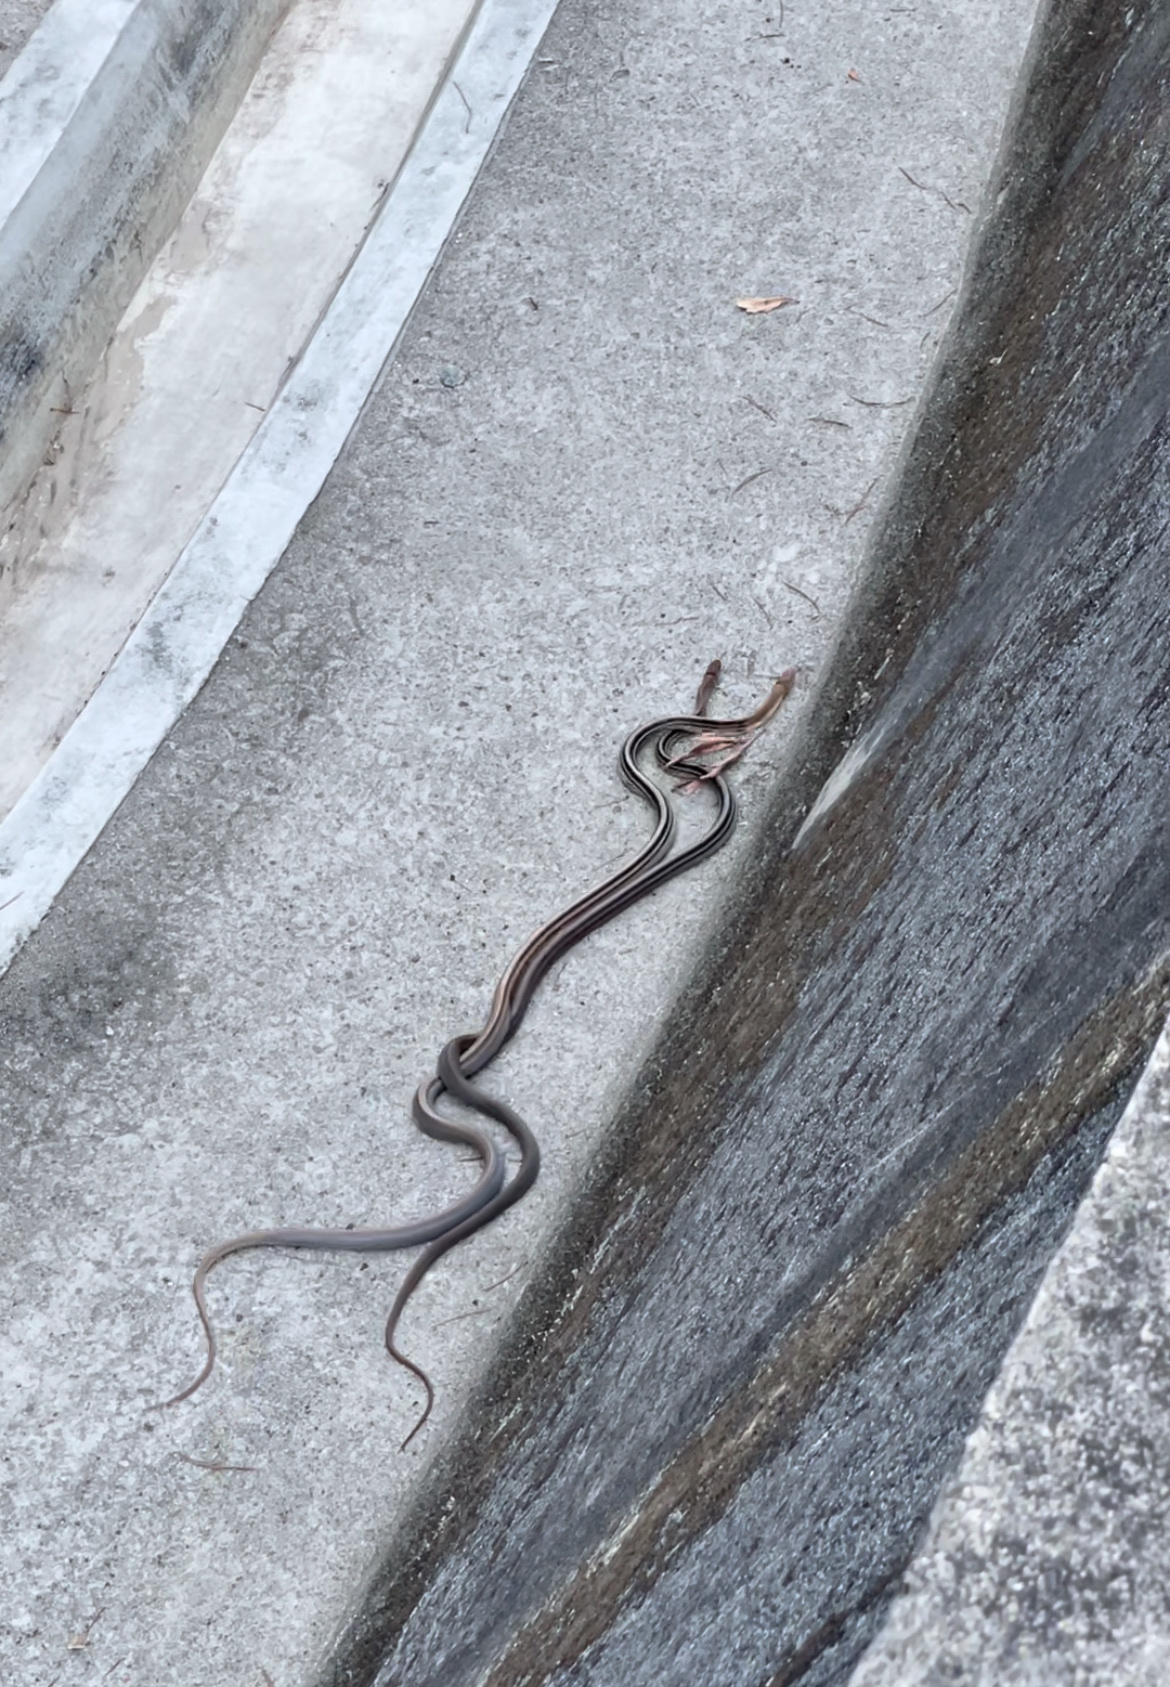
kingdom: Animalia
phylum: Chordata
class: Squamata
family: Colubridae
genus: Coelognathus
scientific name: Coelognathus radiatus
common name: Copperhead rat snake
